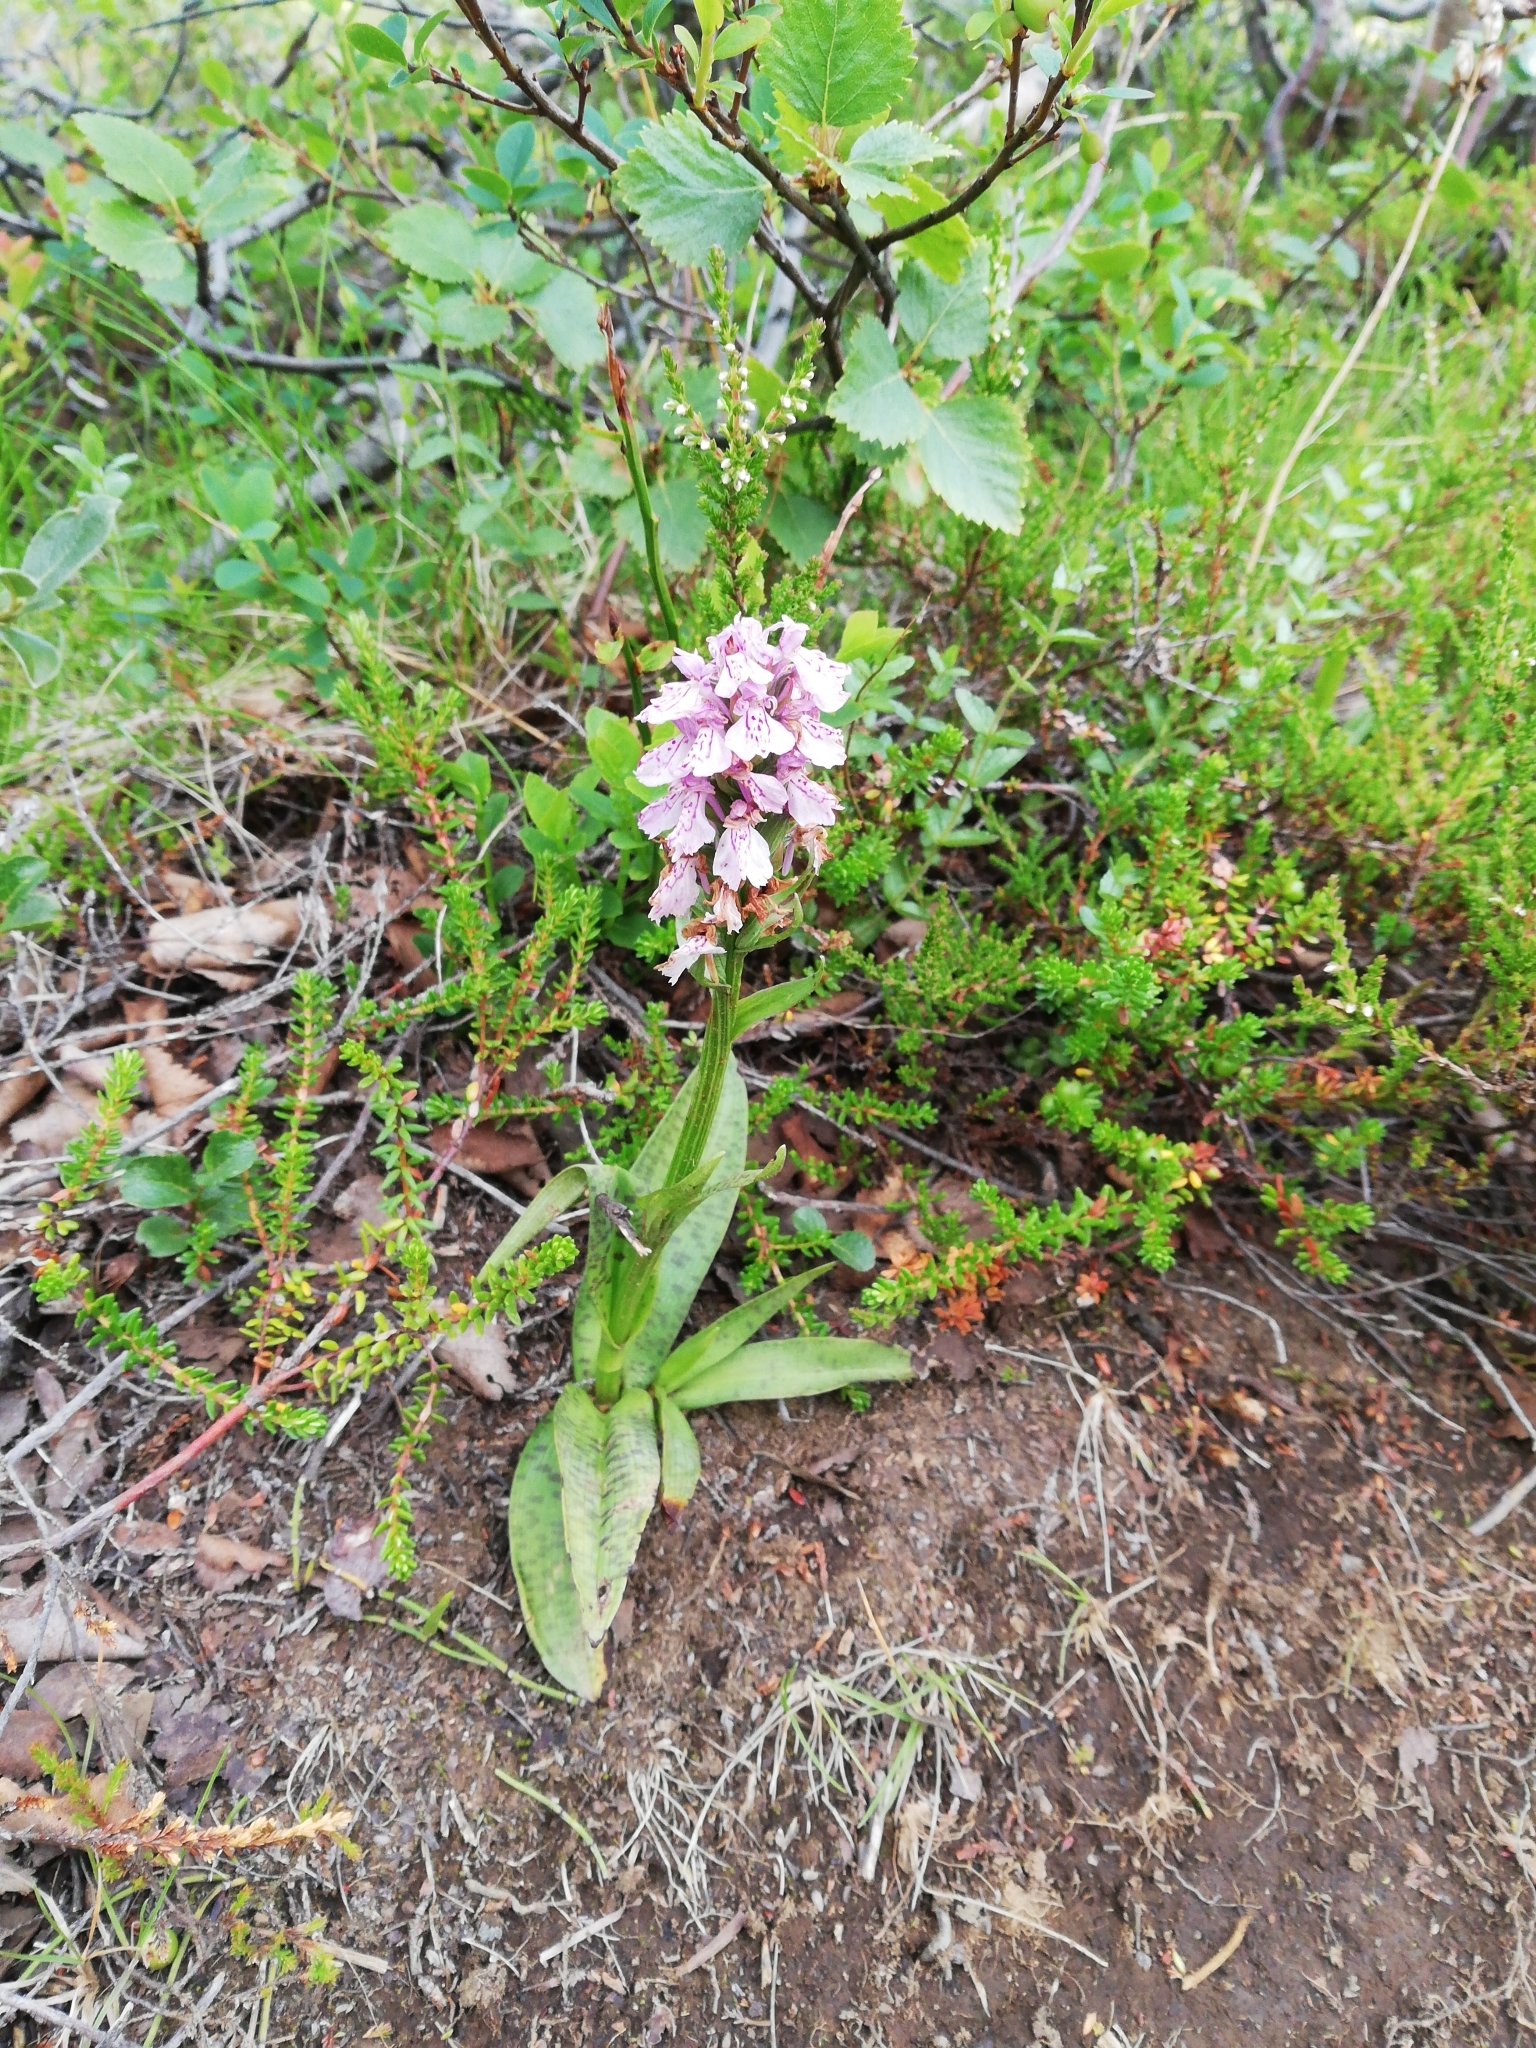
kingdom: Plantae
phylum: Tracheophyta
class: Liliopsida
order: Asparagales
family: Orchidaceae
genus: Dactylorhiza
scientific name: Dactylorhiza maculata
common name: Heath spotted-orchid
